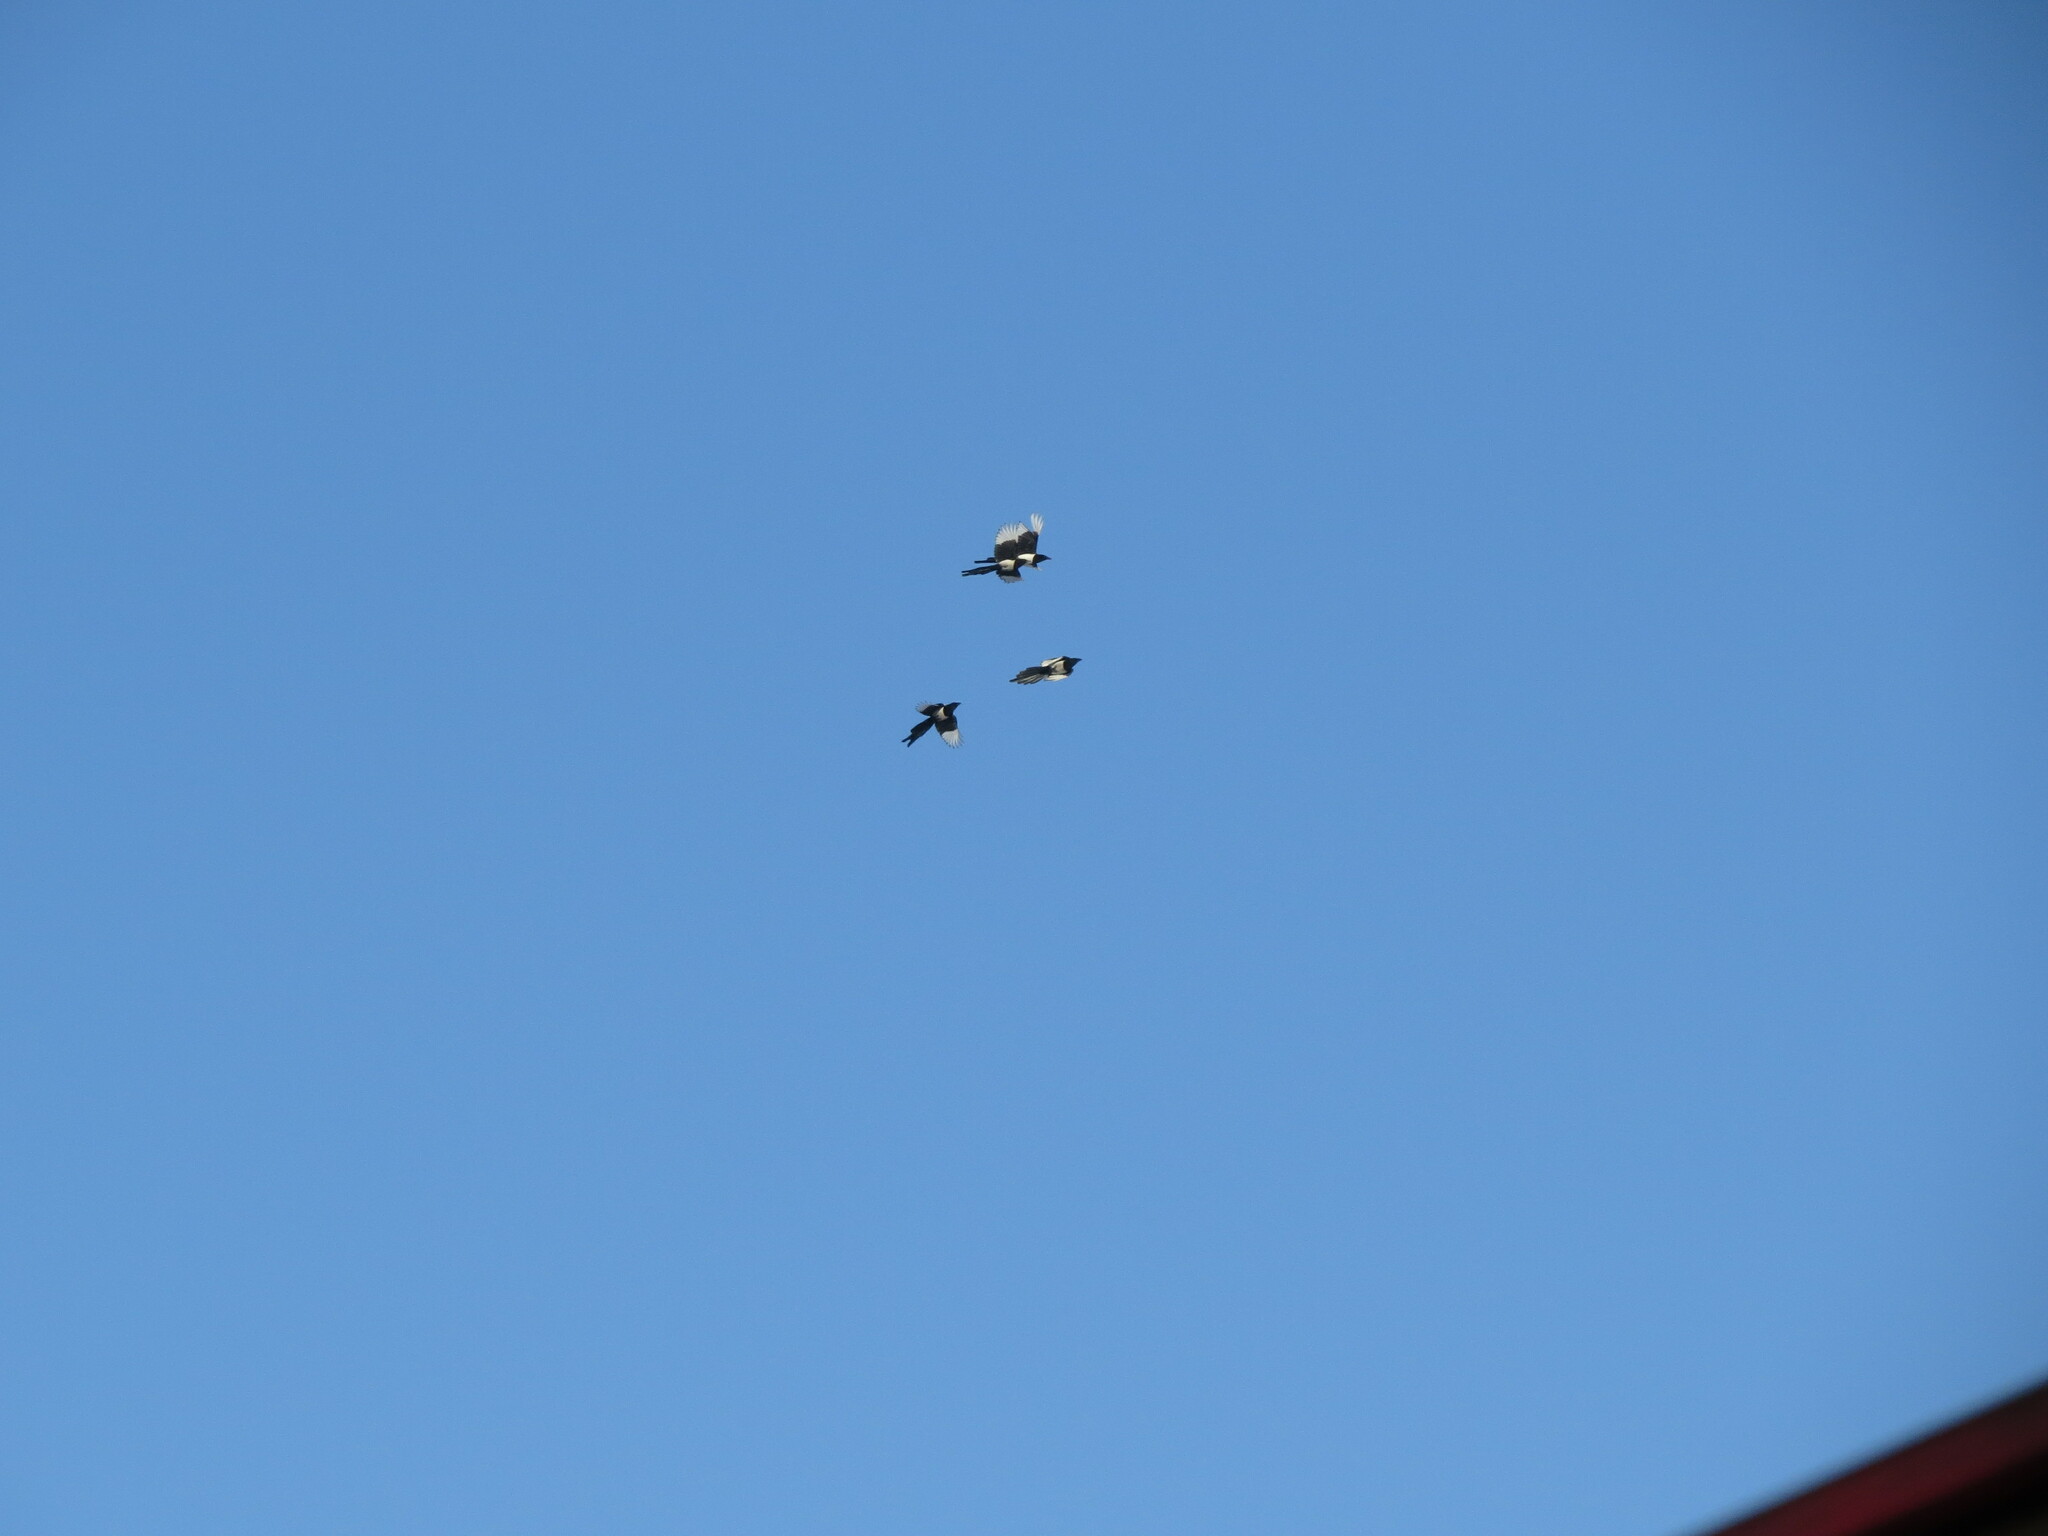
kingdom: Animalia
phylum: Chordata
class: Aves
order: Passeriformes
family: Corvidae
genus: Pica
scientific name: Pica pica
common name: Eurasian magpie
